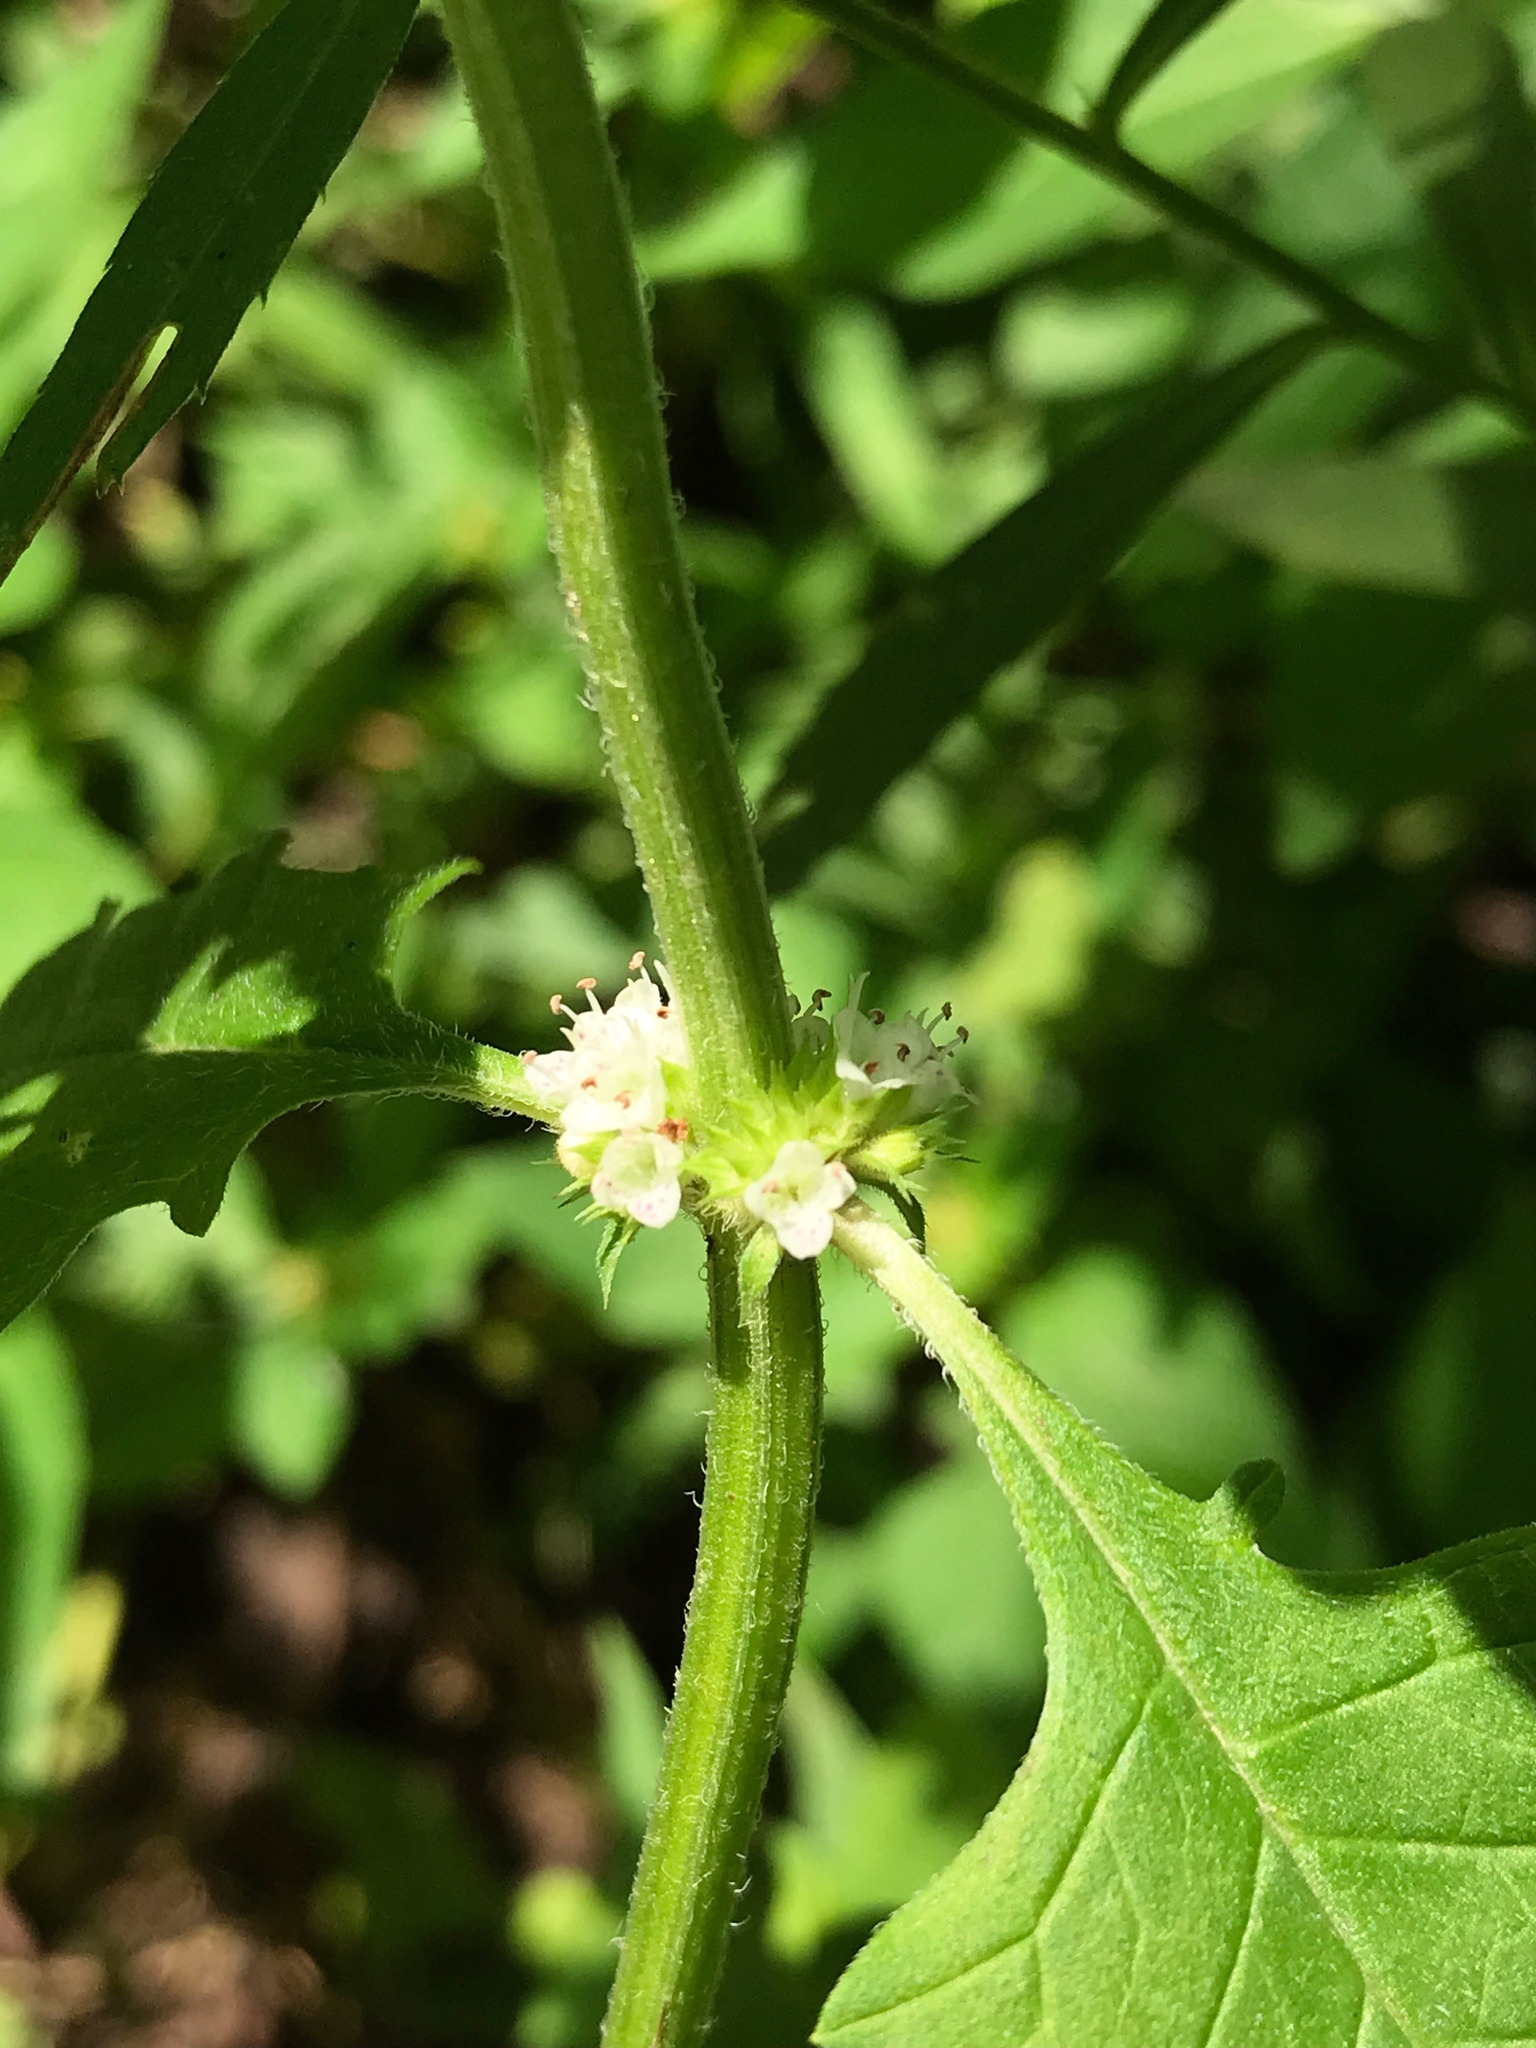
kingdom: Plantae
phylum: Tracheophyta
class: Magnoliopsida
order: Lamiales
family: Lamiaceae
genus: Lycopus
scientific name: Lycopus americanus
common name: American bugleweed
